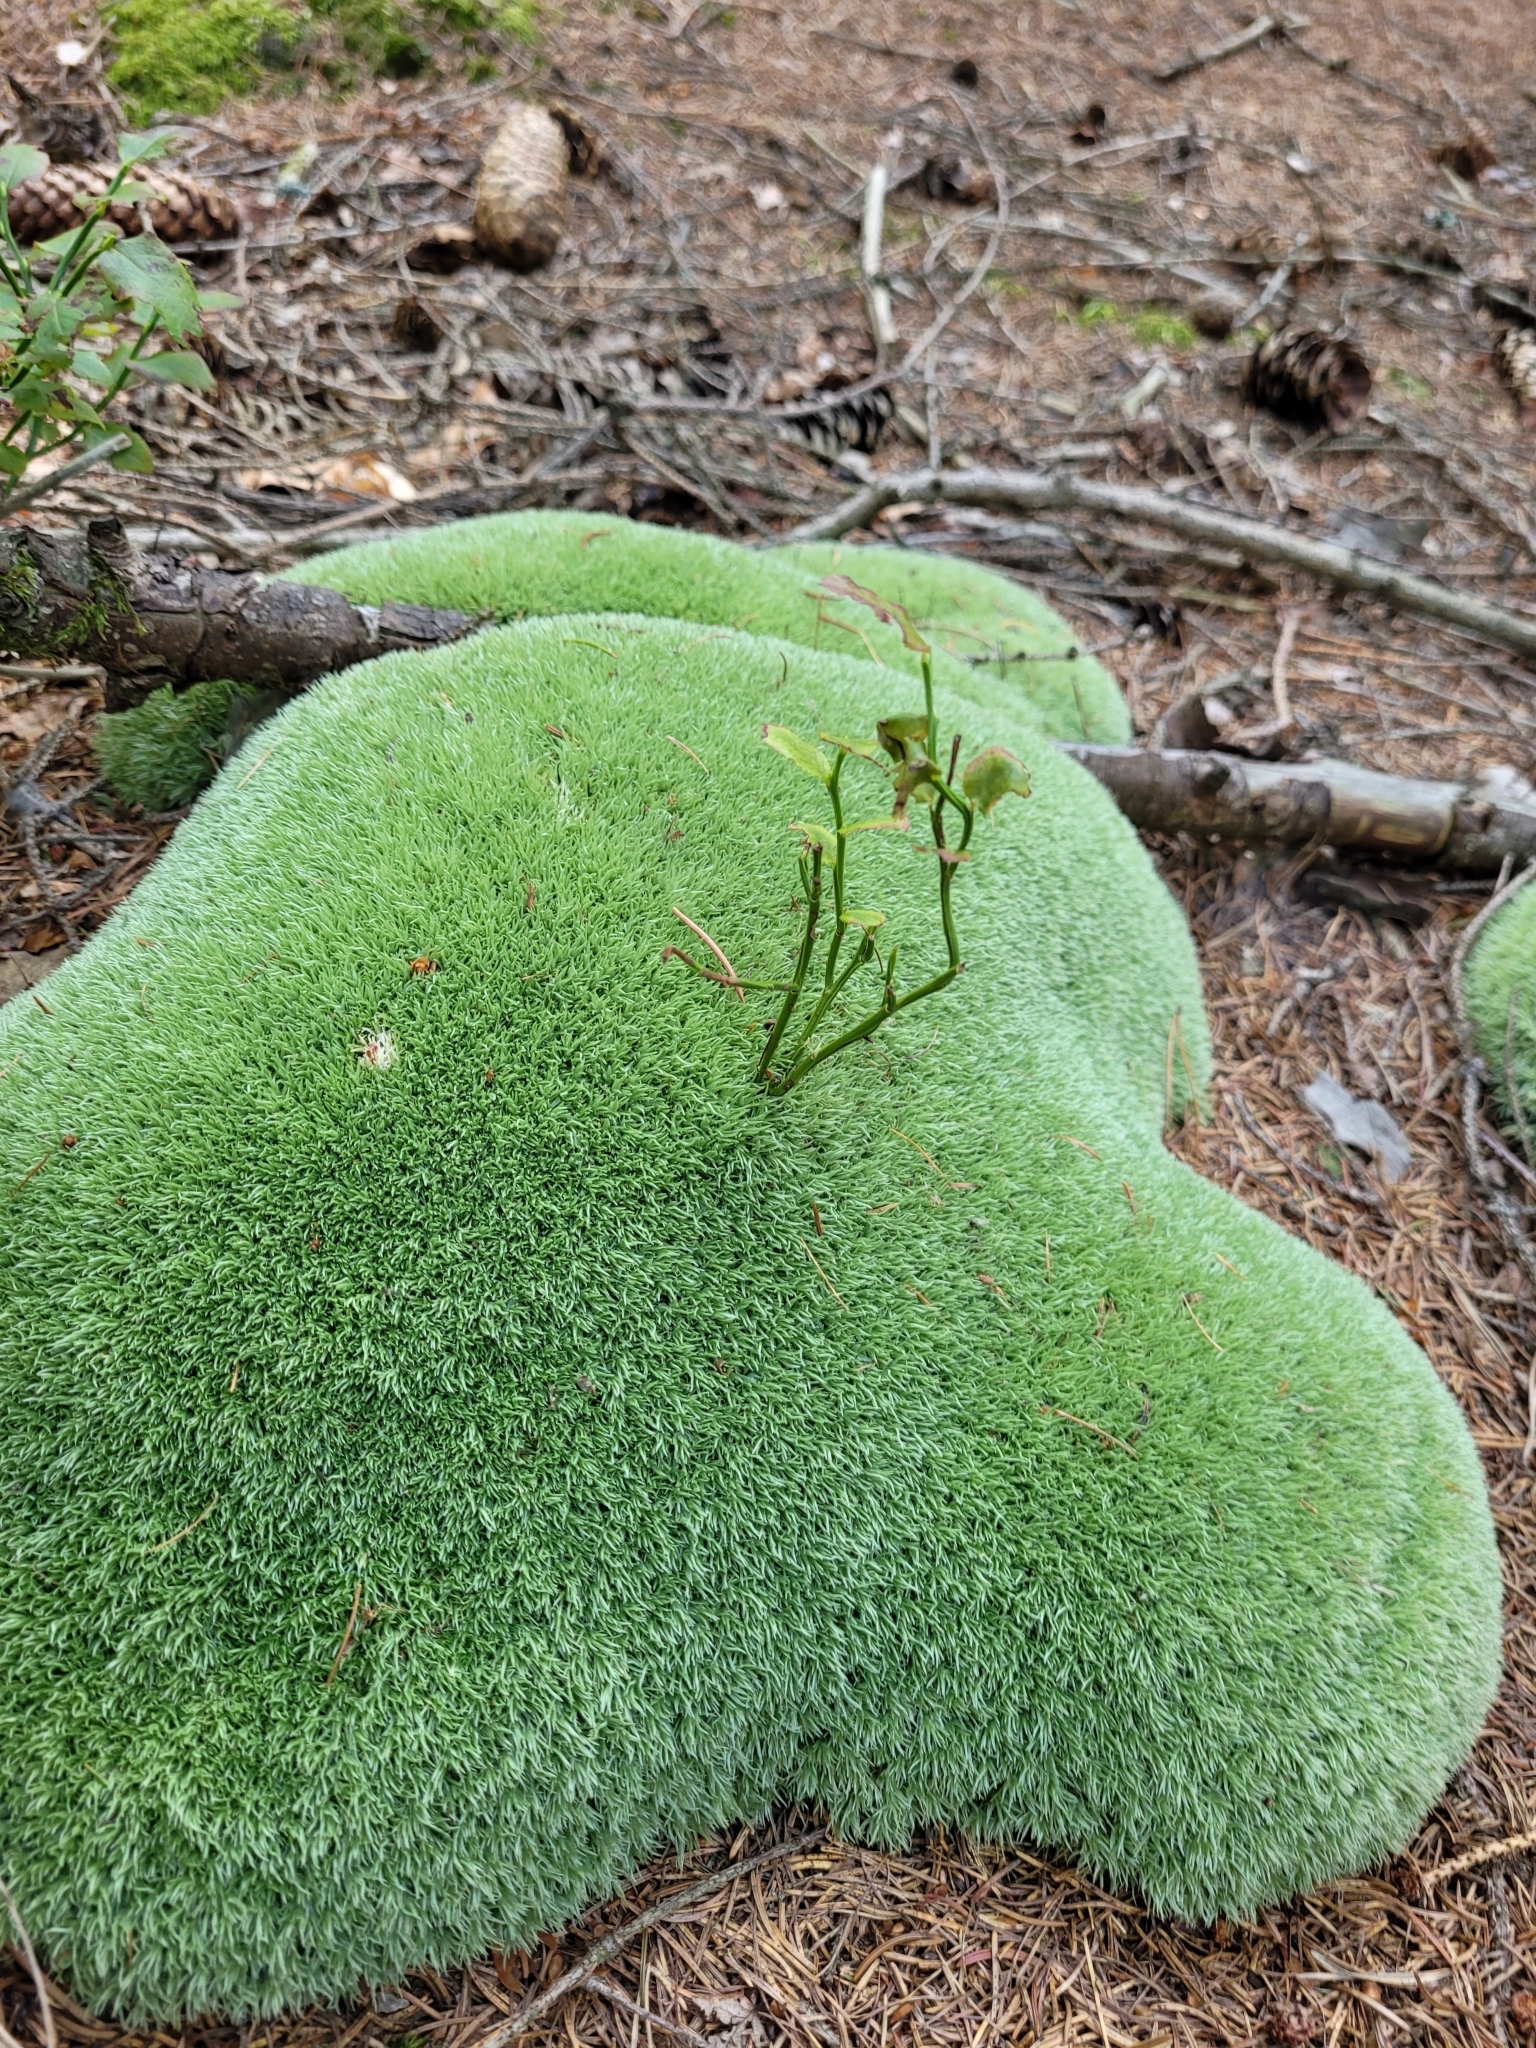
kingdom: Plantae
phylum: Bryophyta
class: Bryopsida
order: Dicranales
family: Leucobryaceae
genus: Leucobryum
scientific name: Leucobryum glaucum
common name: Large white-moss
